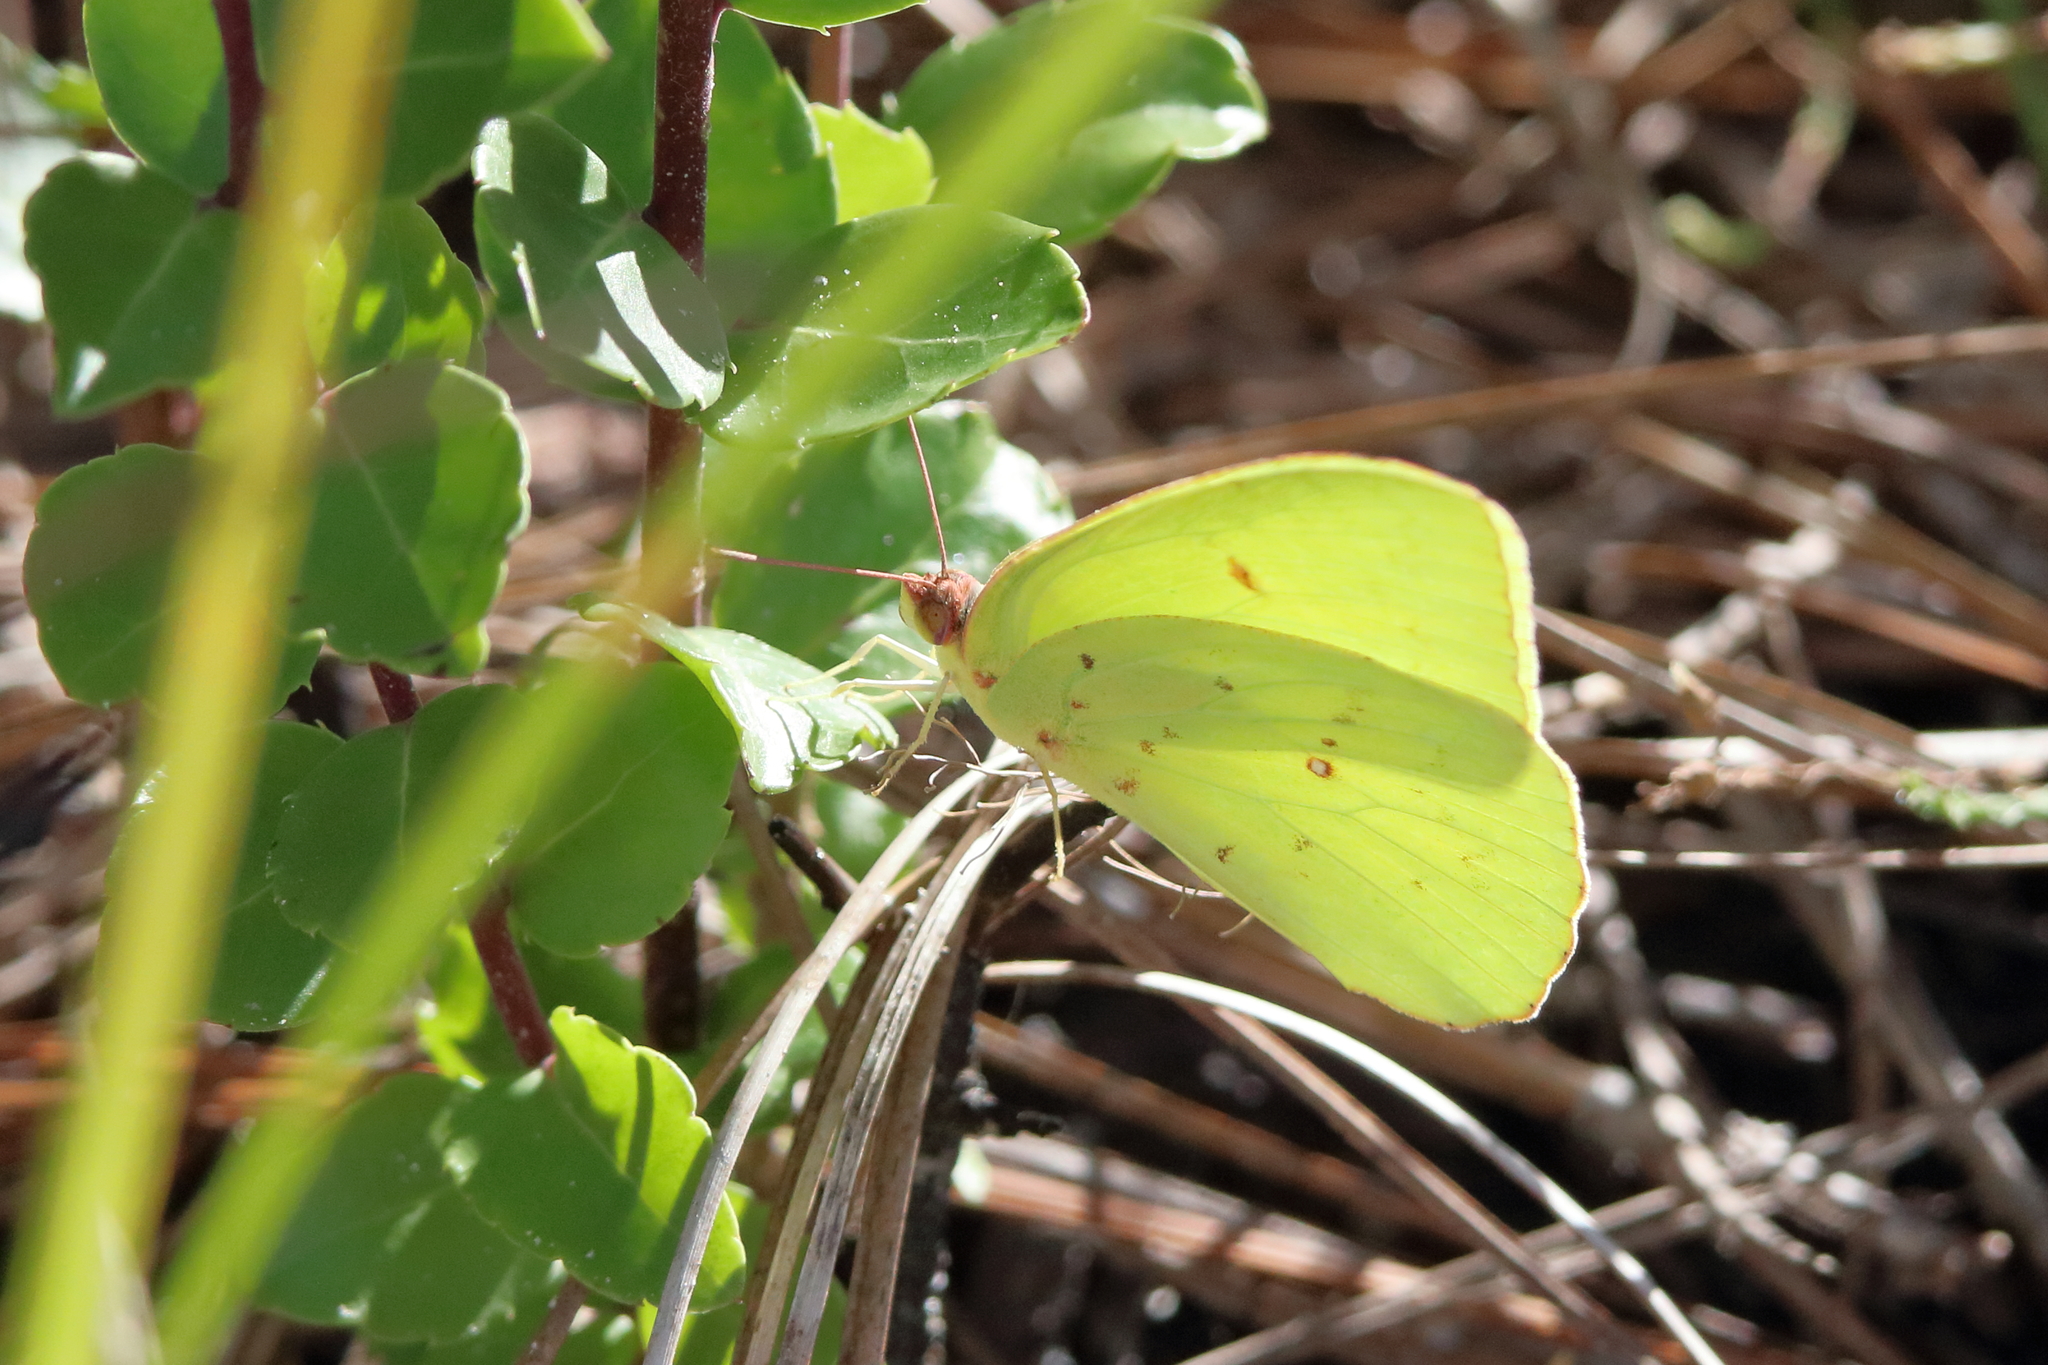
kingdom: Animalia
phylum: Arthropoda
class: Insecta
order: Lepidoptera
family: Pieridae
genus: Phoebis
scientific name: Phoebis sennae
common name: Cloudless sulphur
